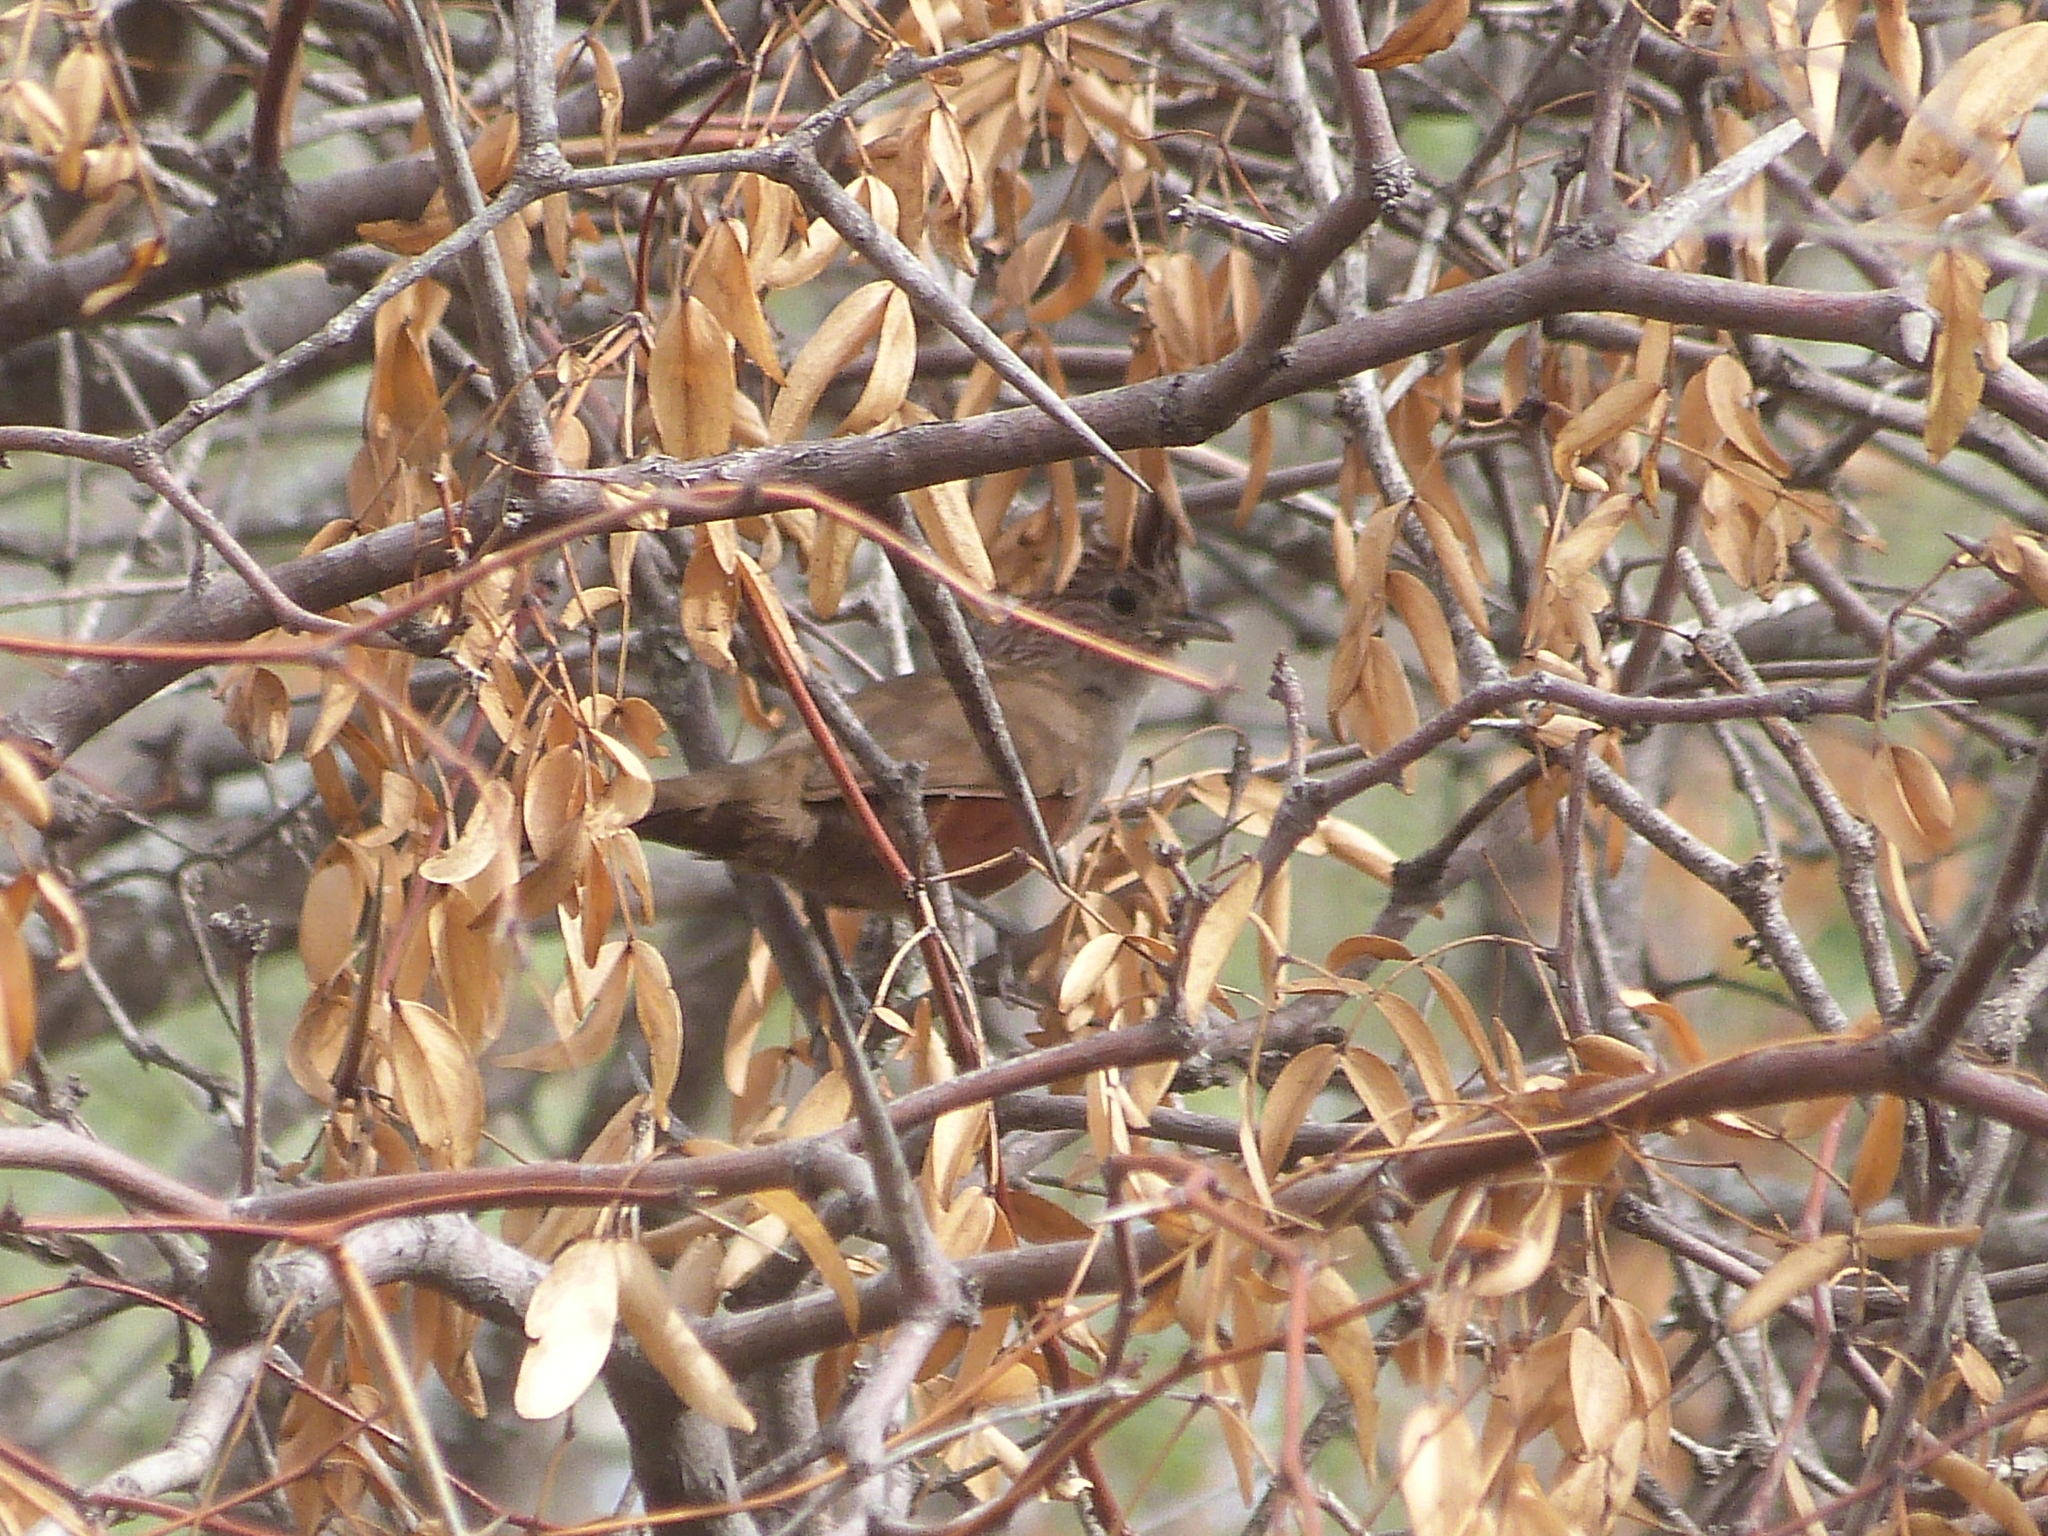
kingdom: Animalia
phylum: Chordata
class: Aves
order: Passeriformes
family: Rhinocryptidae
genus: Rhinocrypta
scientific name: Rhinocrypta lanceolata
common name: Crested gallito
